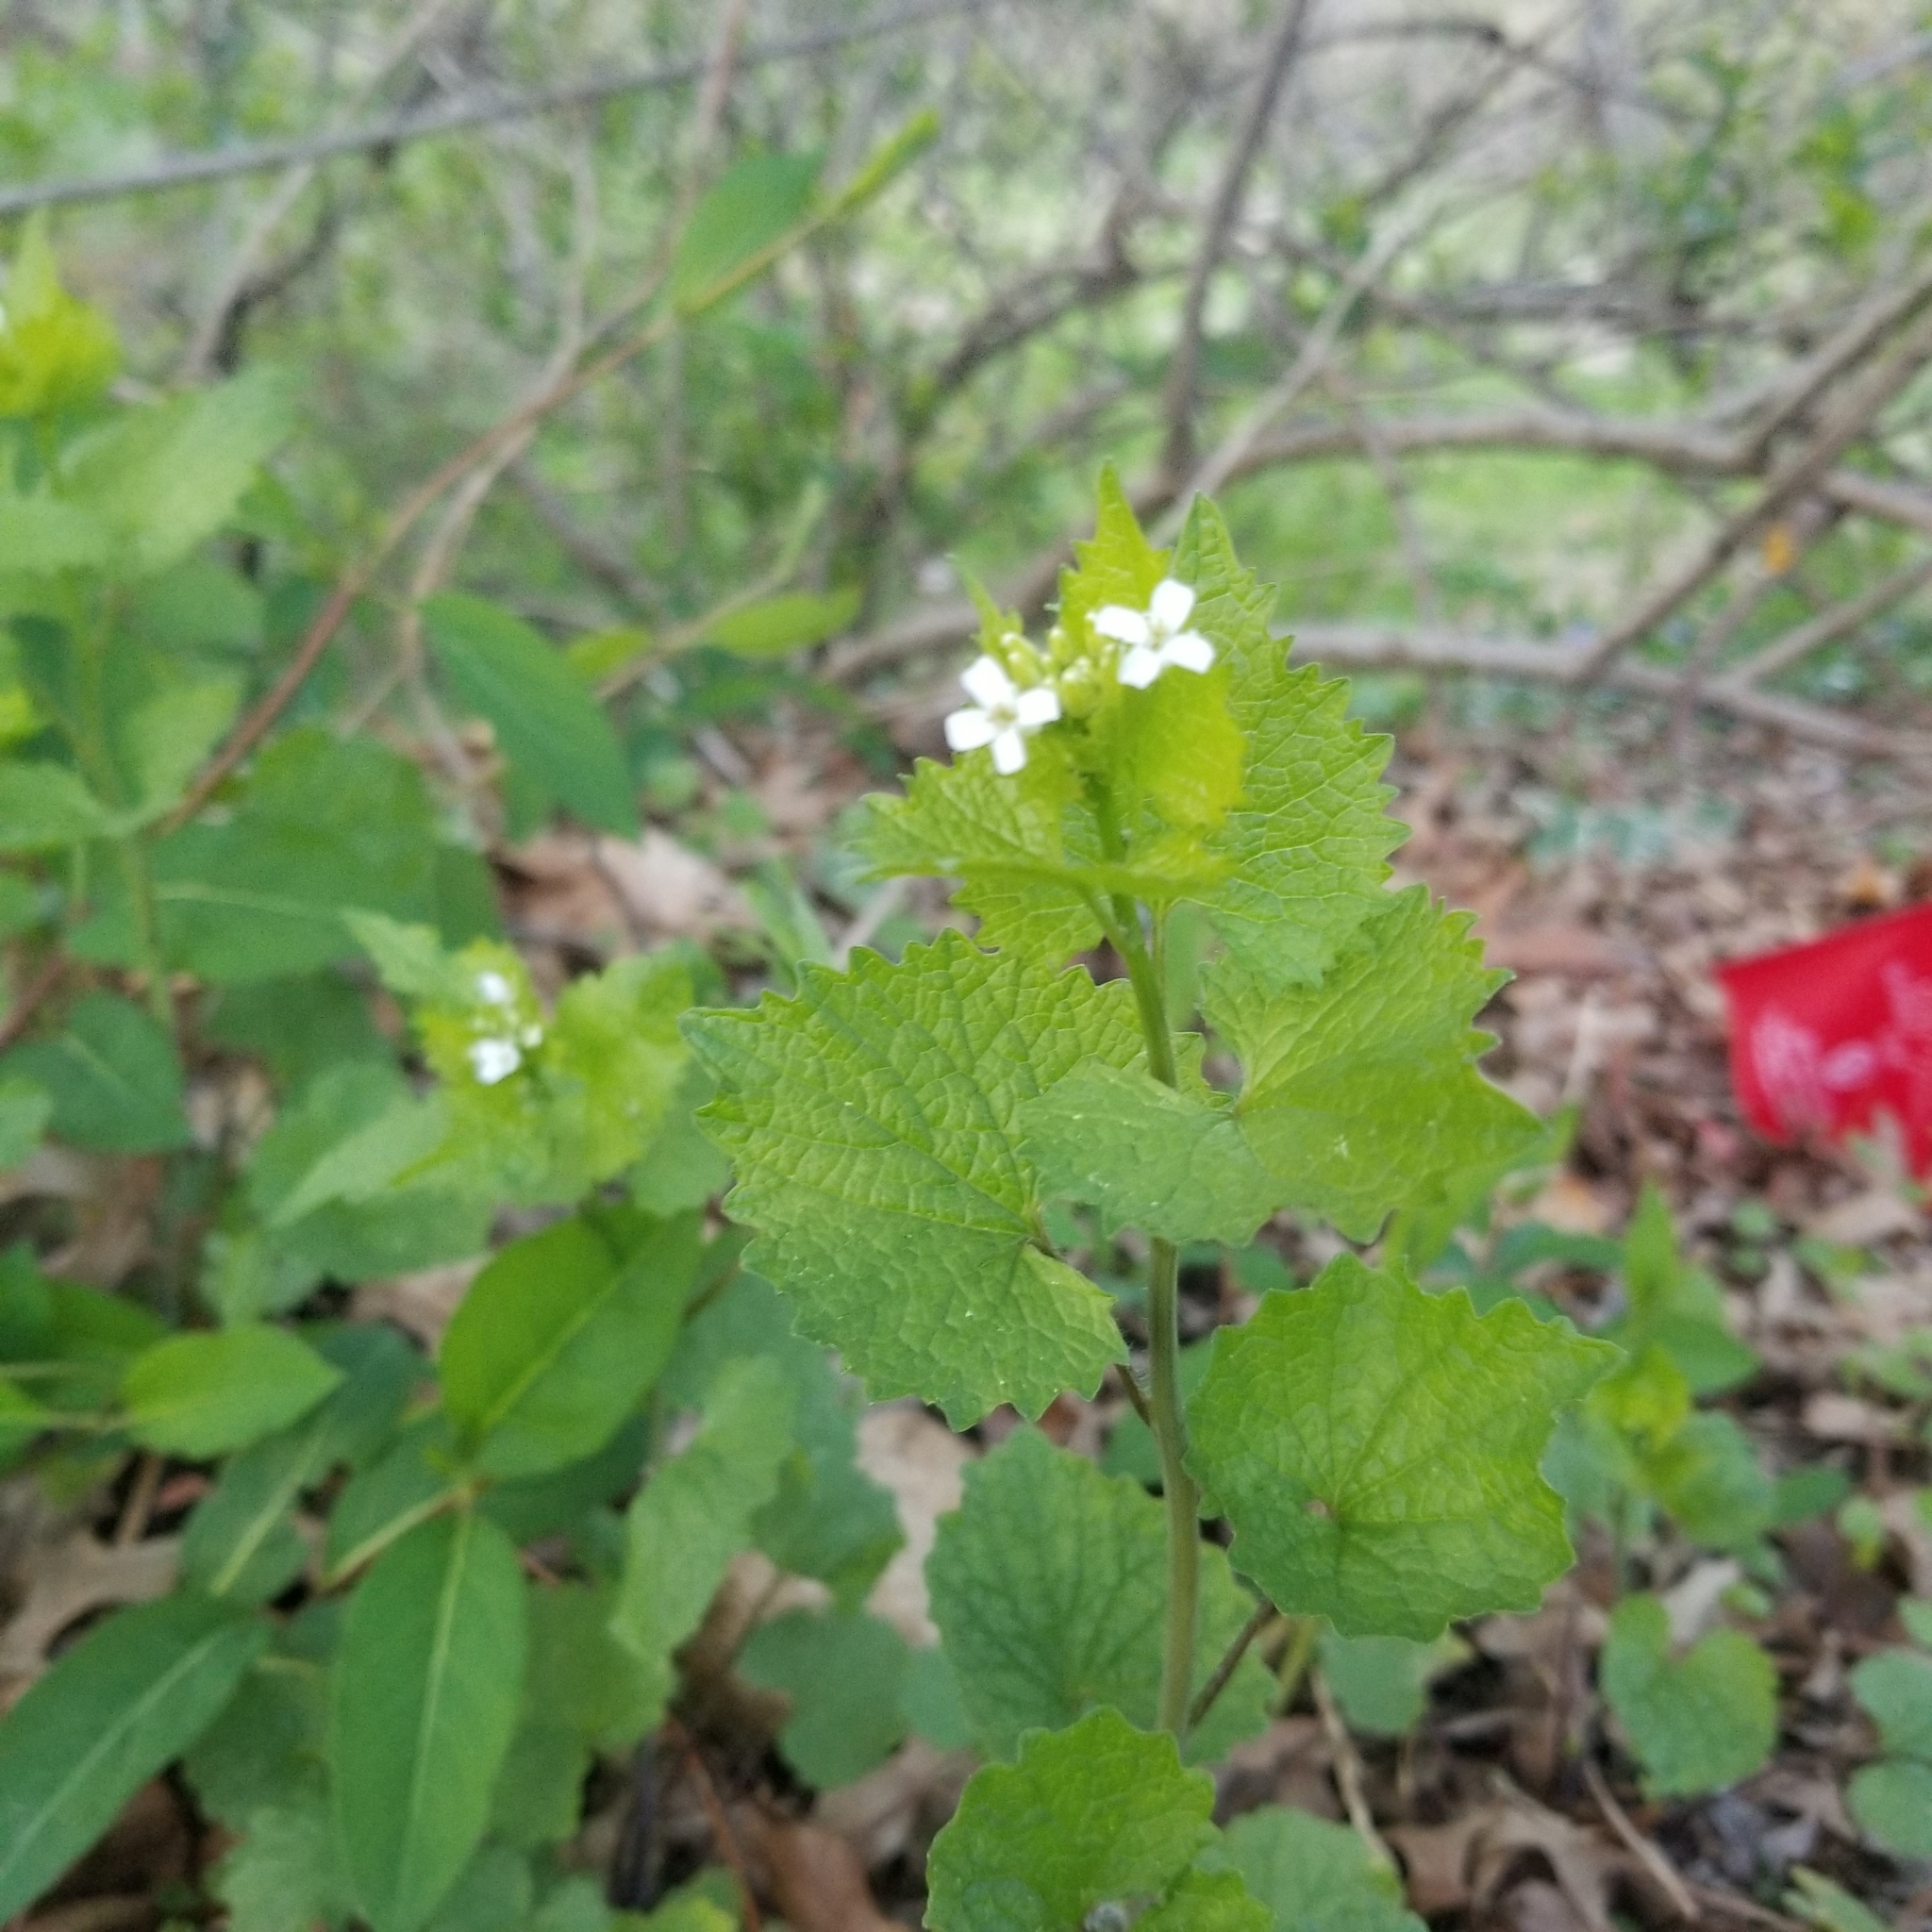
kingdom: Plantae
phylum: Tracheophyta
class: Magnoliopsida
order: Brassicales
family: Brassicaceae
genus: Alliaria
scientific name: Alliaria petiolata
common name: Garlic mustard
